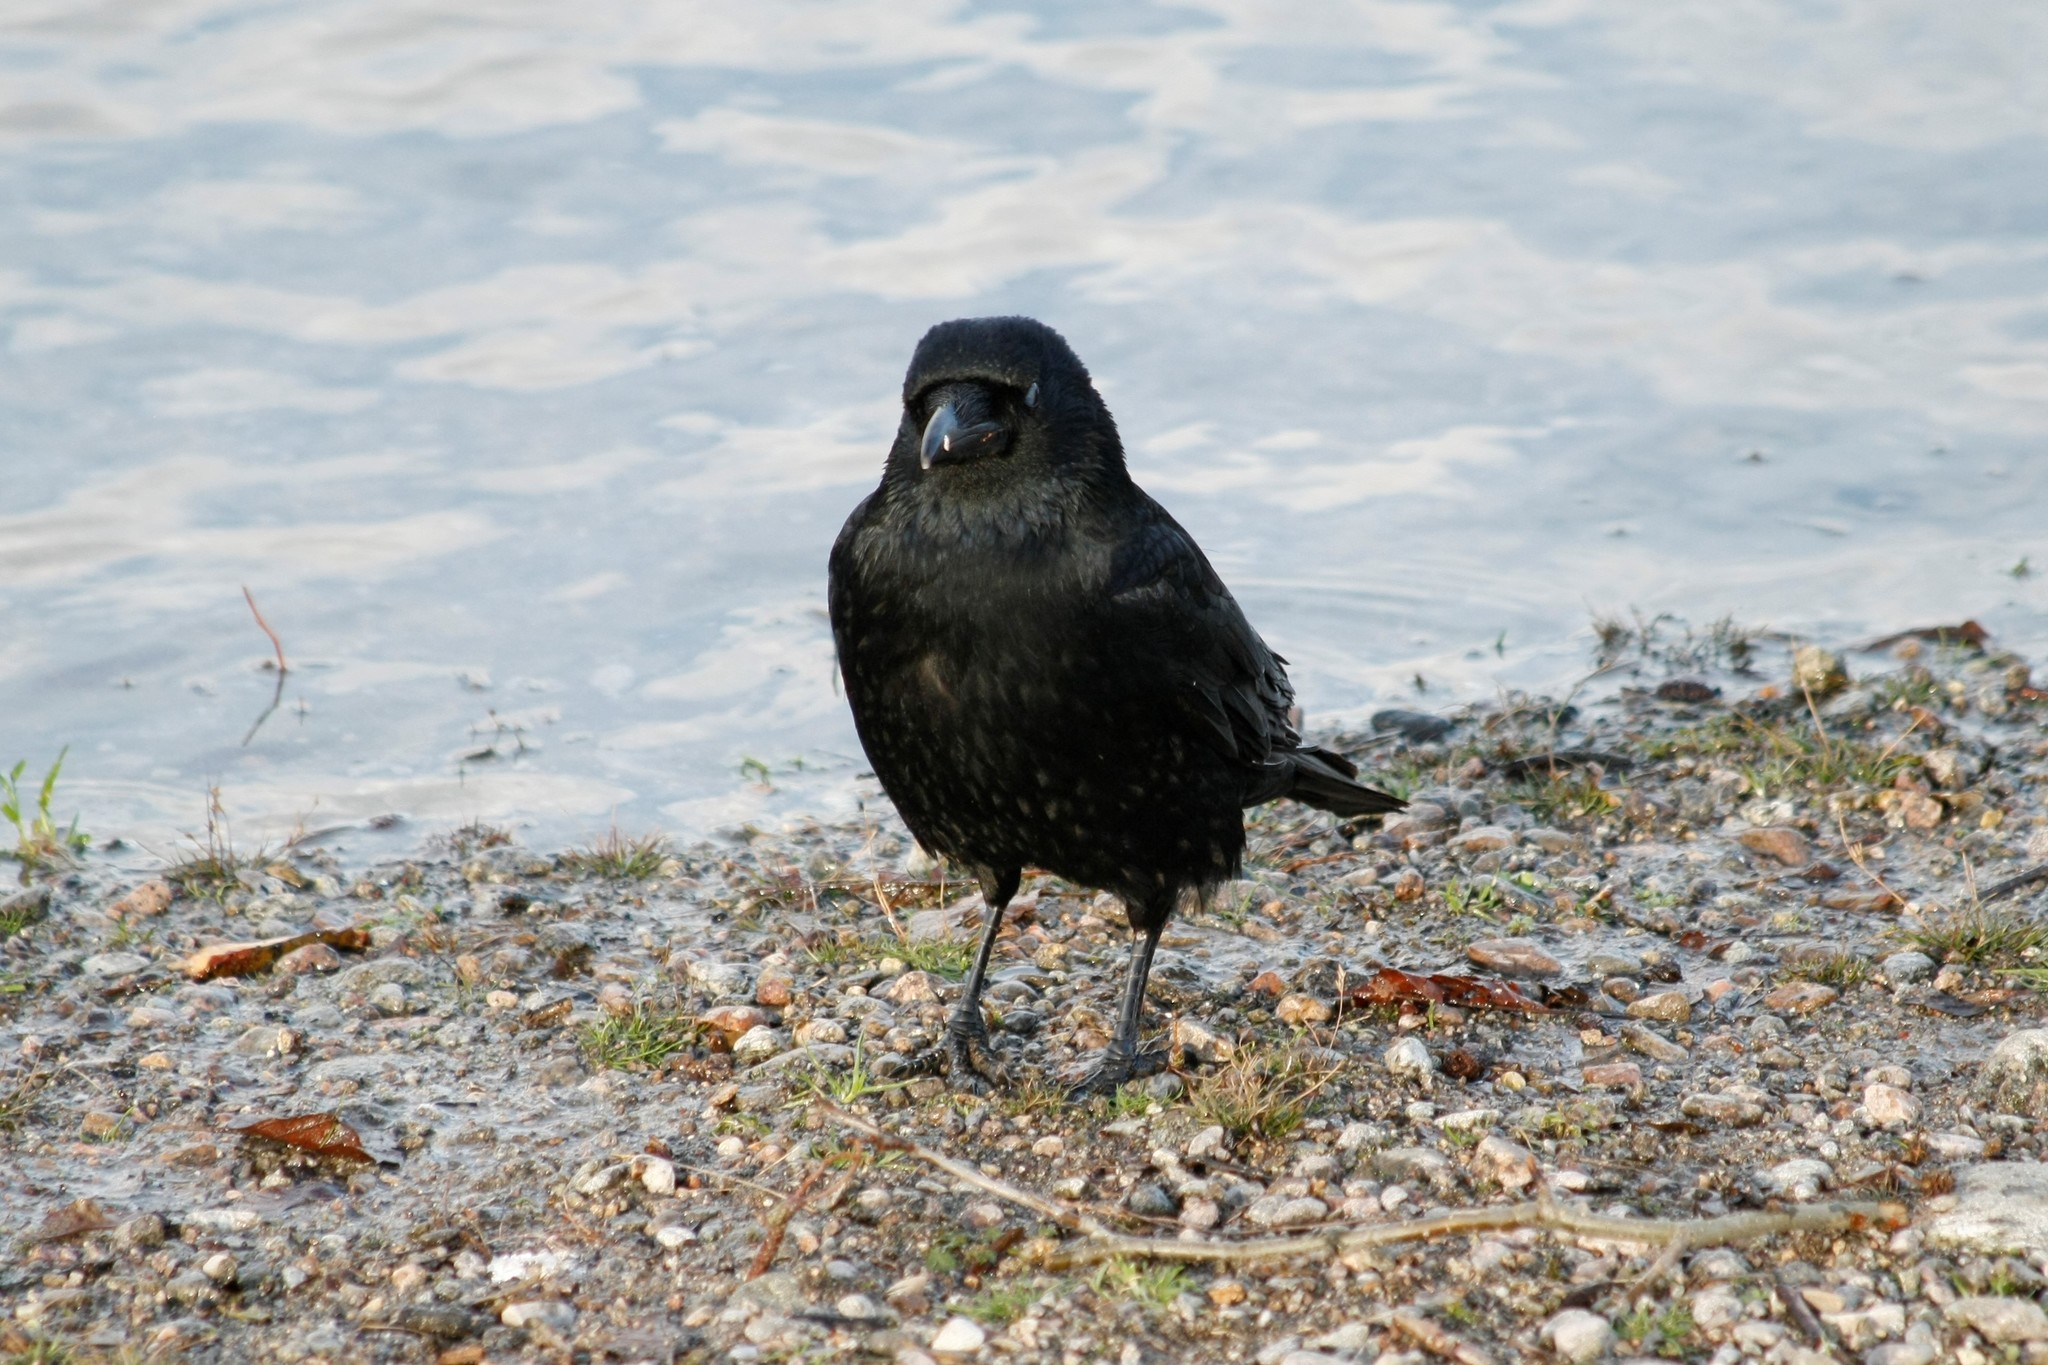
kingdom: Animalia
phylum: Chordata
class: Aves
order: Passeriformes
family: Corvidae
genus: Corvus
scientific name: Corvus corone
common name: Carrion crow
